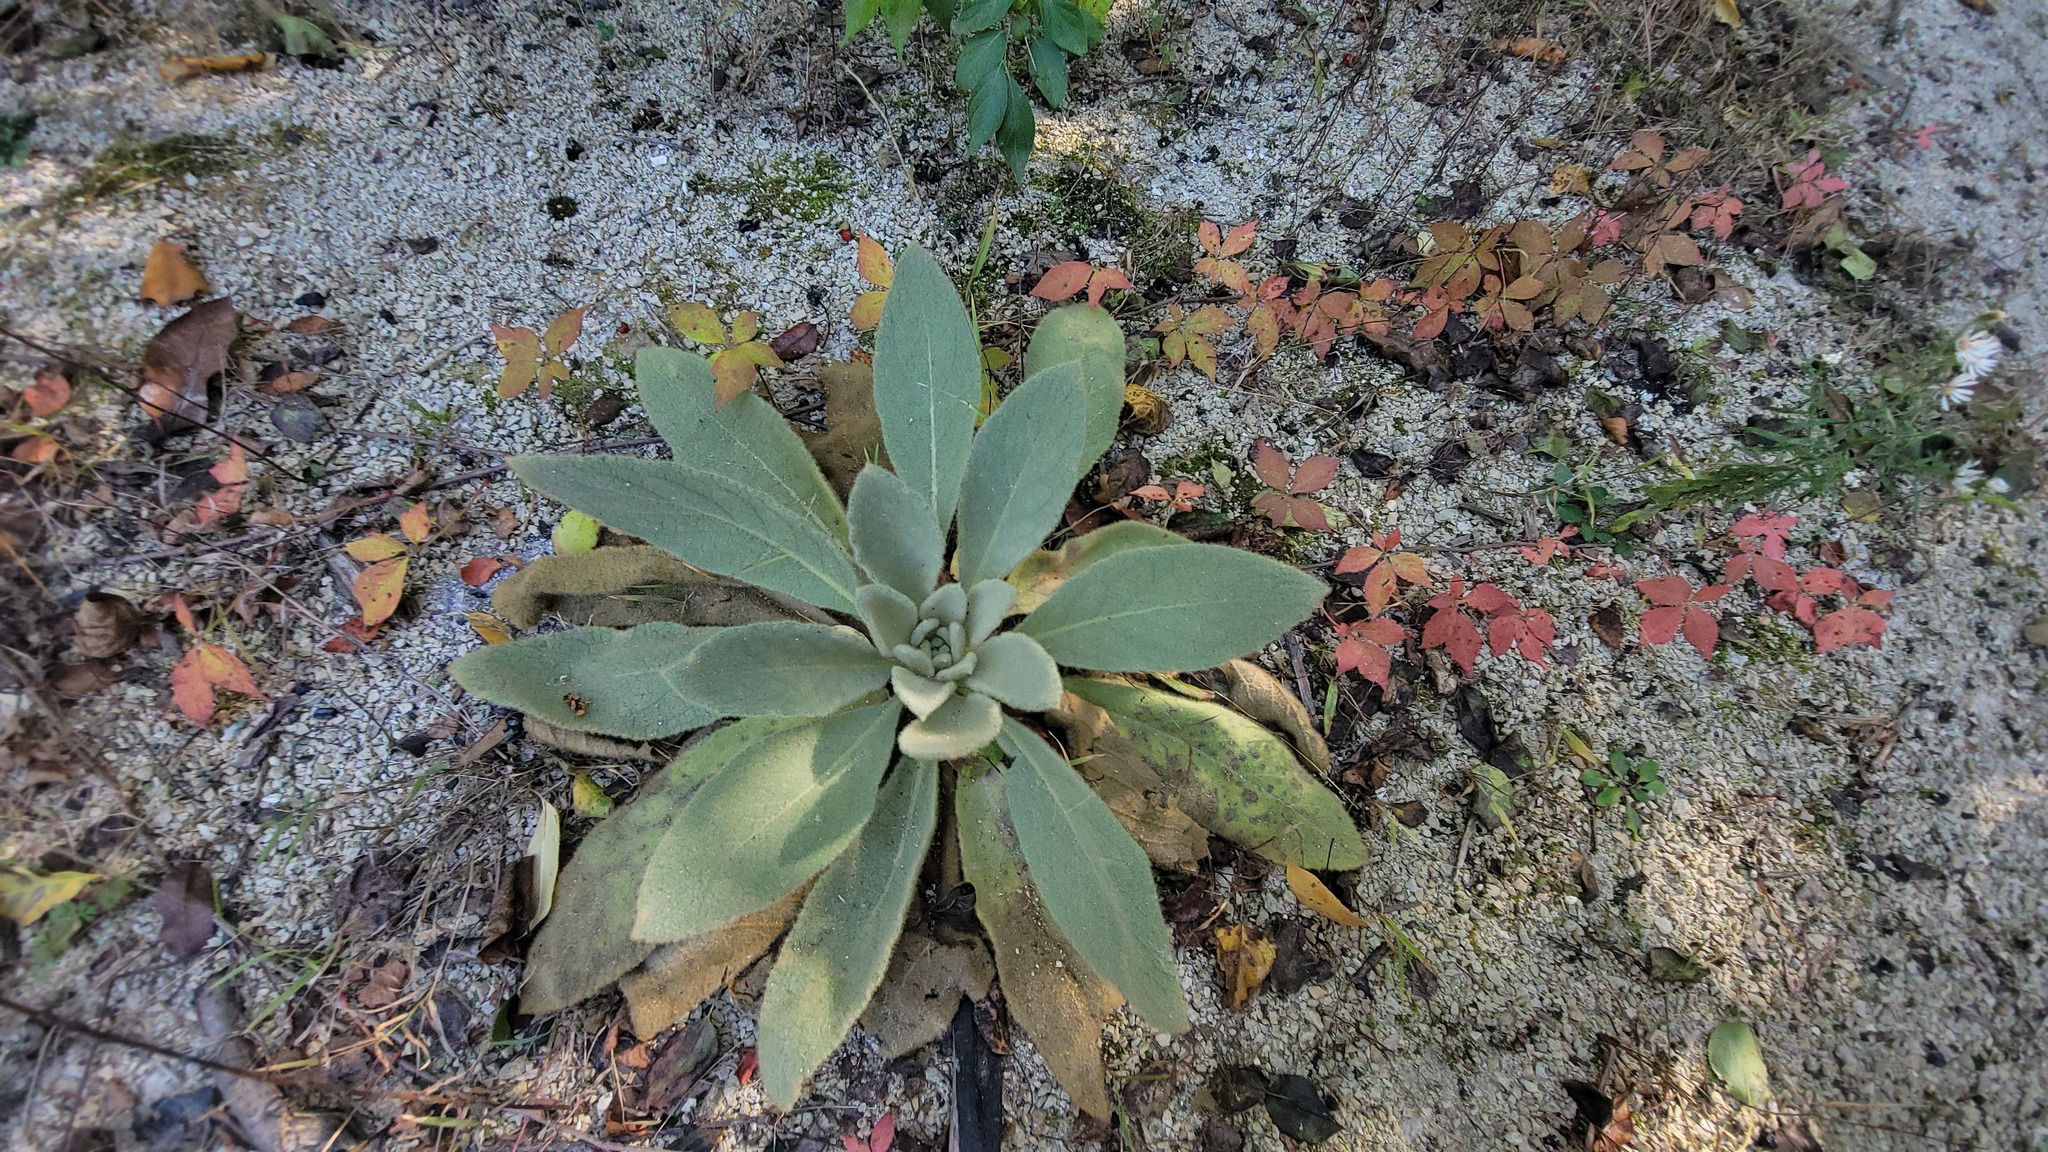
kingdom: Plantae
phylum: Tracheophyta
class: Magnoliopsida
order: Lamiales
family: Scrophulariaceae
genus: Verbascum
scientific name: Verbascum thapsus
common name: Common mullein
